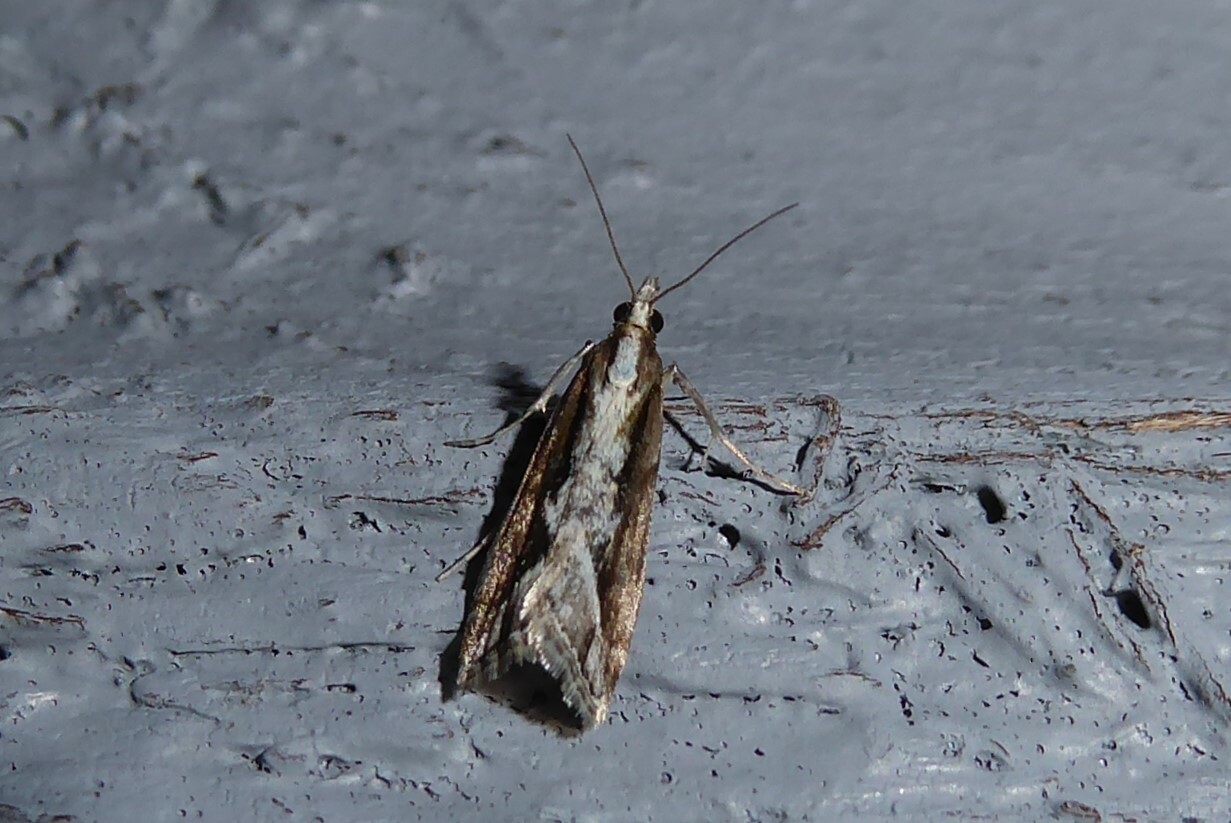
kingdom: Animalia
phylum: Arthropoda
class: Insecta
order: Lepidoptera
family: Crambidae
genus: Eudonia
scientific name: Eudonia steropaea
